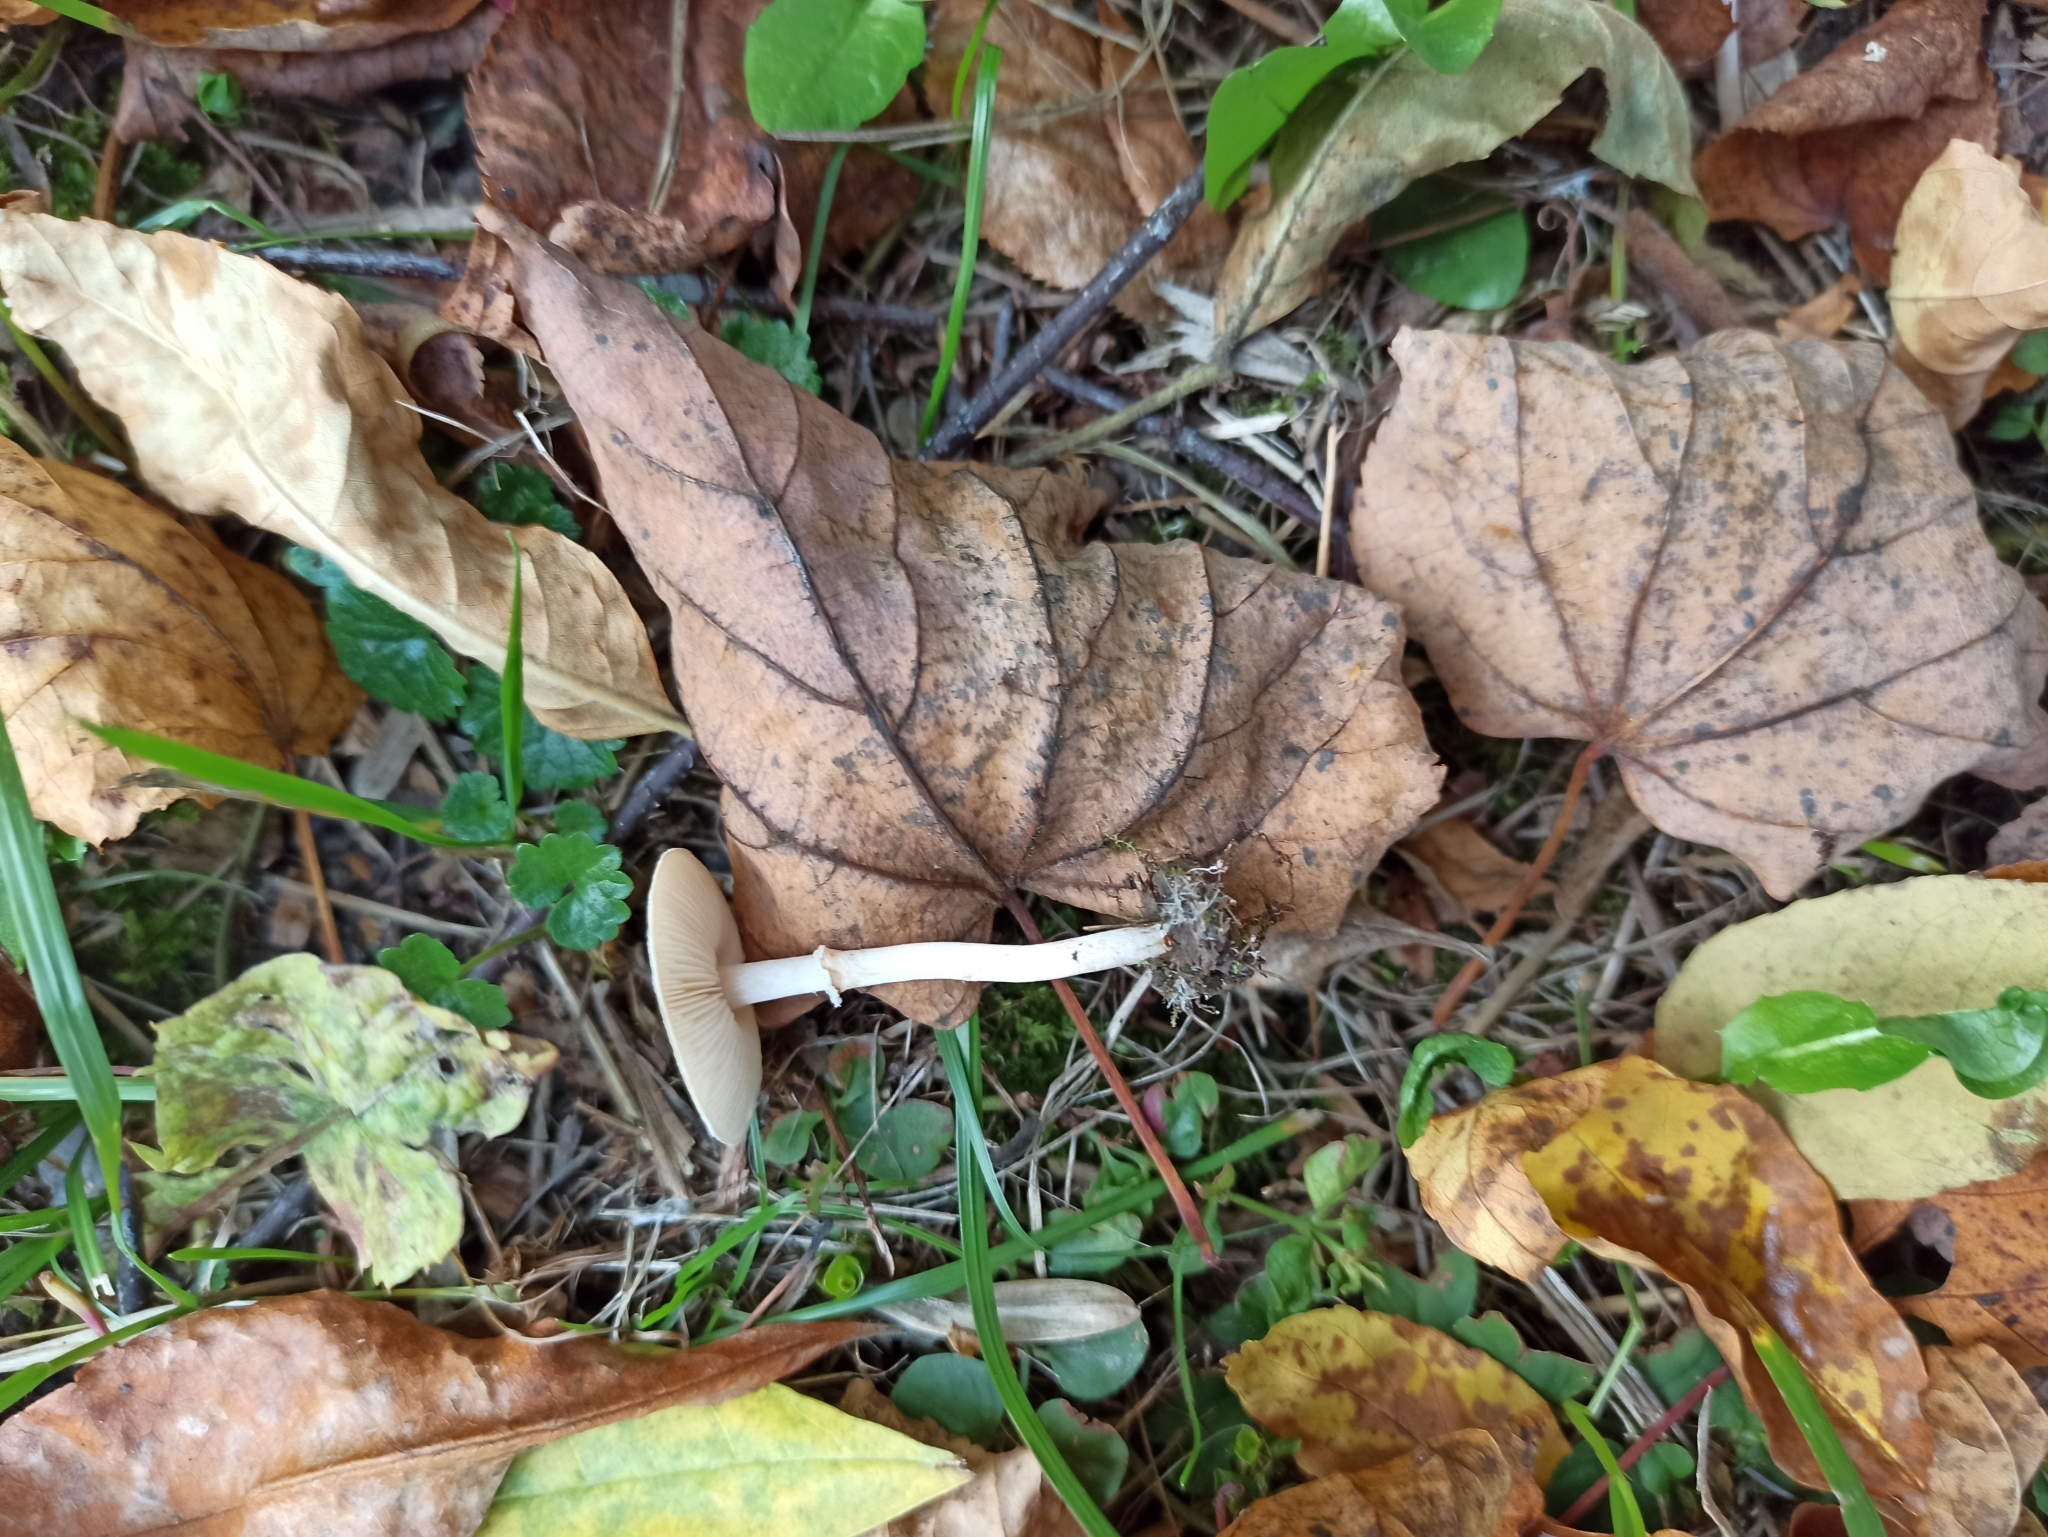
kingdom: Fungi
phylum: Basidiomycota
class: Agaricomycetes
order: Agaricales
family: Agaricaceae
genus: Lepiota
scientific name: Lepiota cristata
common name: Stinking dapperling
